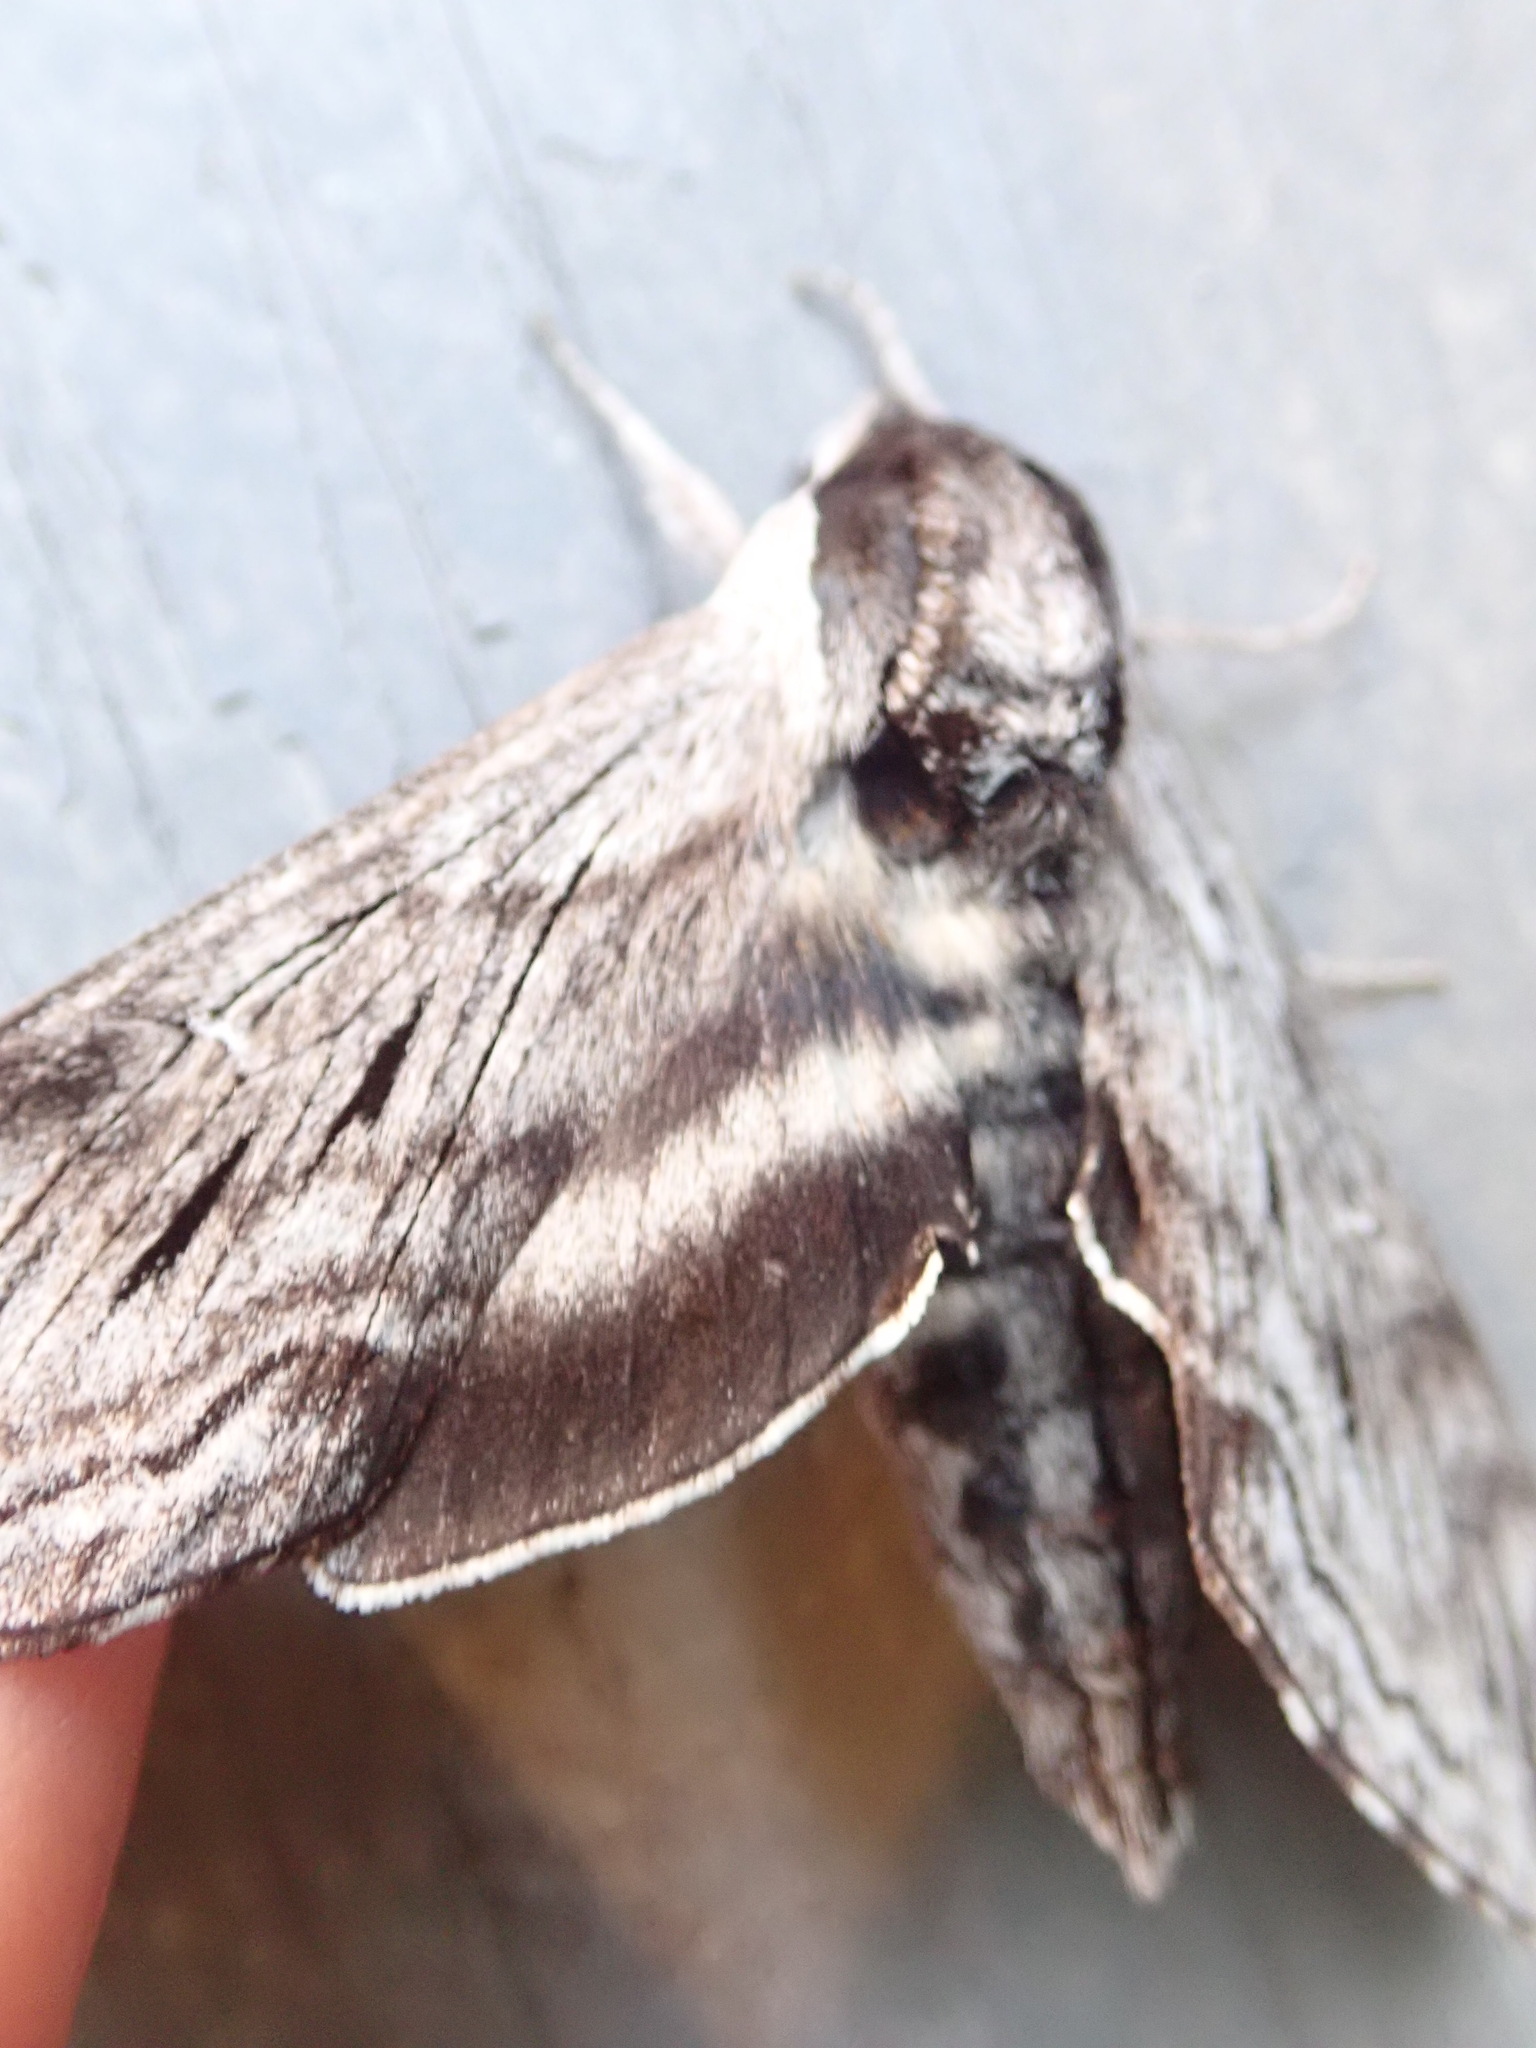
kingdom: Animalia
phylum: Arthropoda
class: Insecta
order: Lepidoptera
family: Sphingidae
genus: Sphinx
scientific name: Sphinx poecila
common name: Northern apple sphinx
